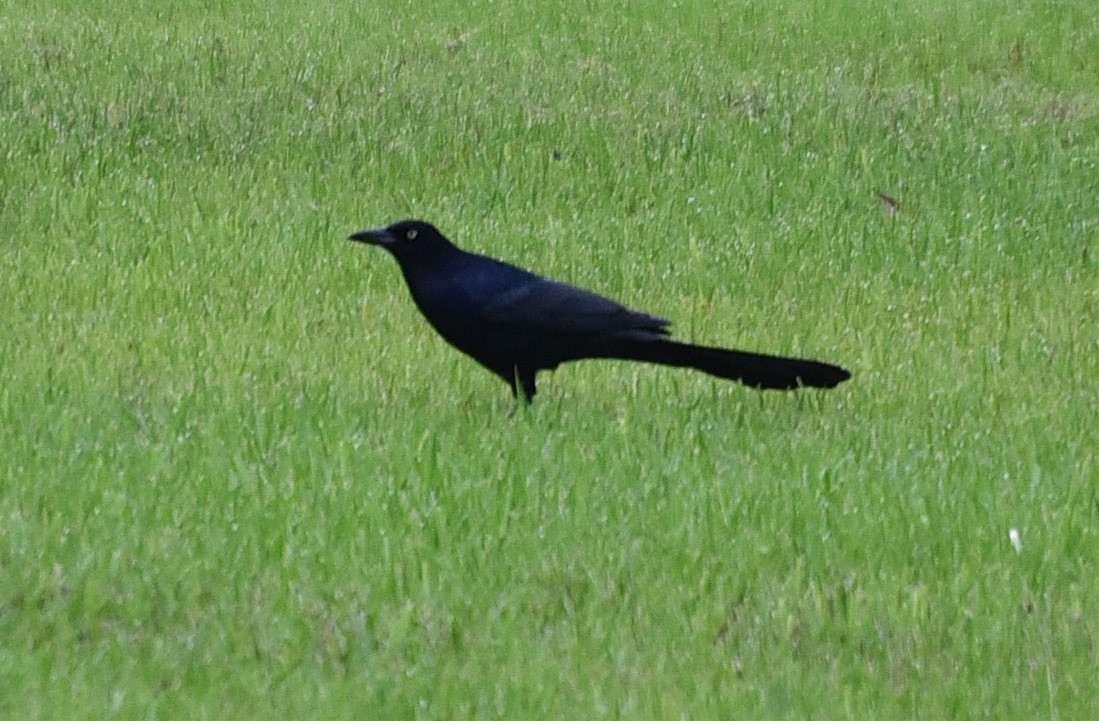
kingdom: Animalia
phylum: Chordata
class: Aves
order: Passeriformes
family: Icteridae
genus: Quiscalus
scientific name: Quiscalus mexicanus
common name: Great-tailed grackle
